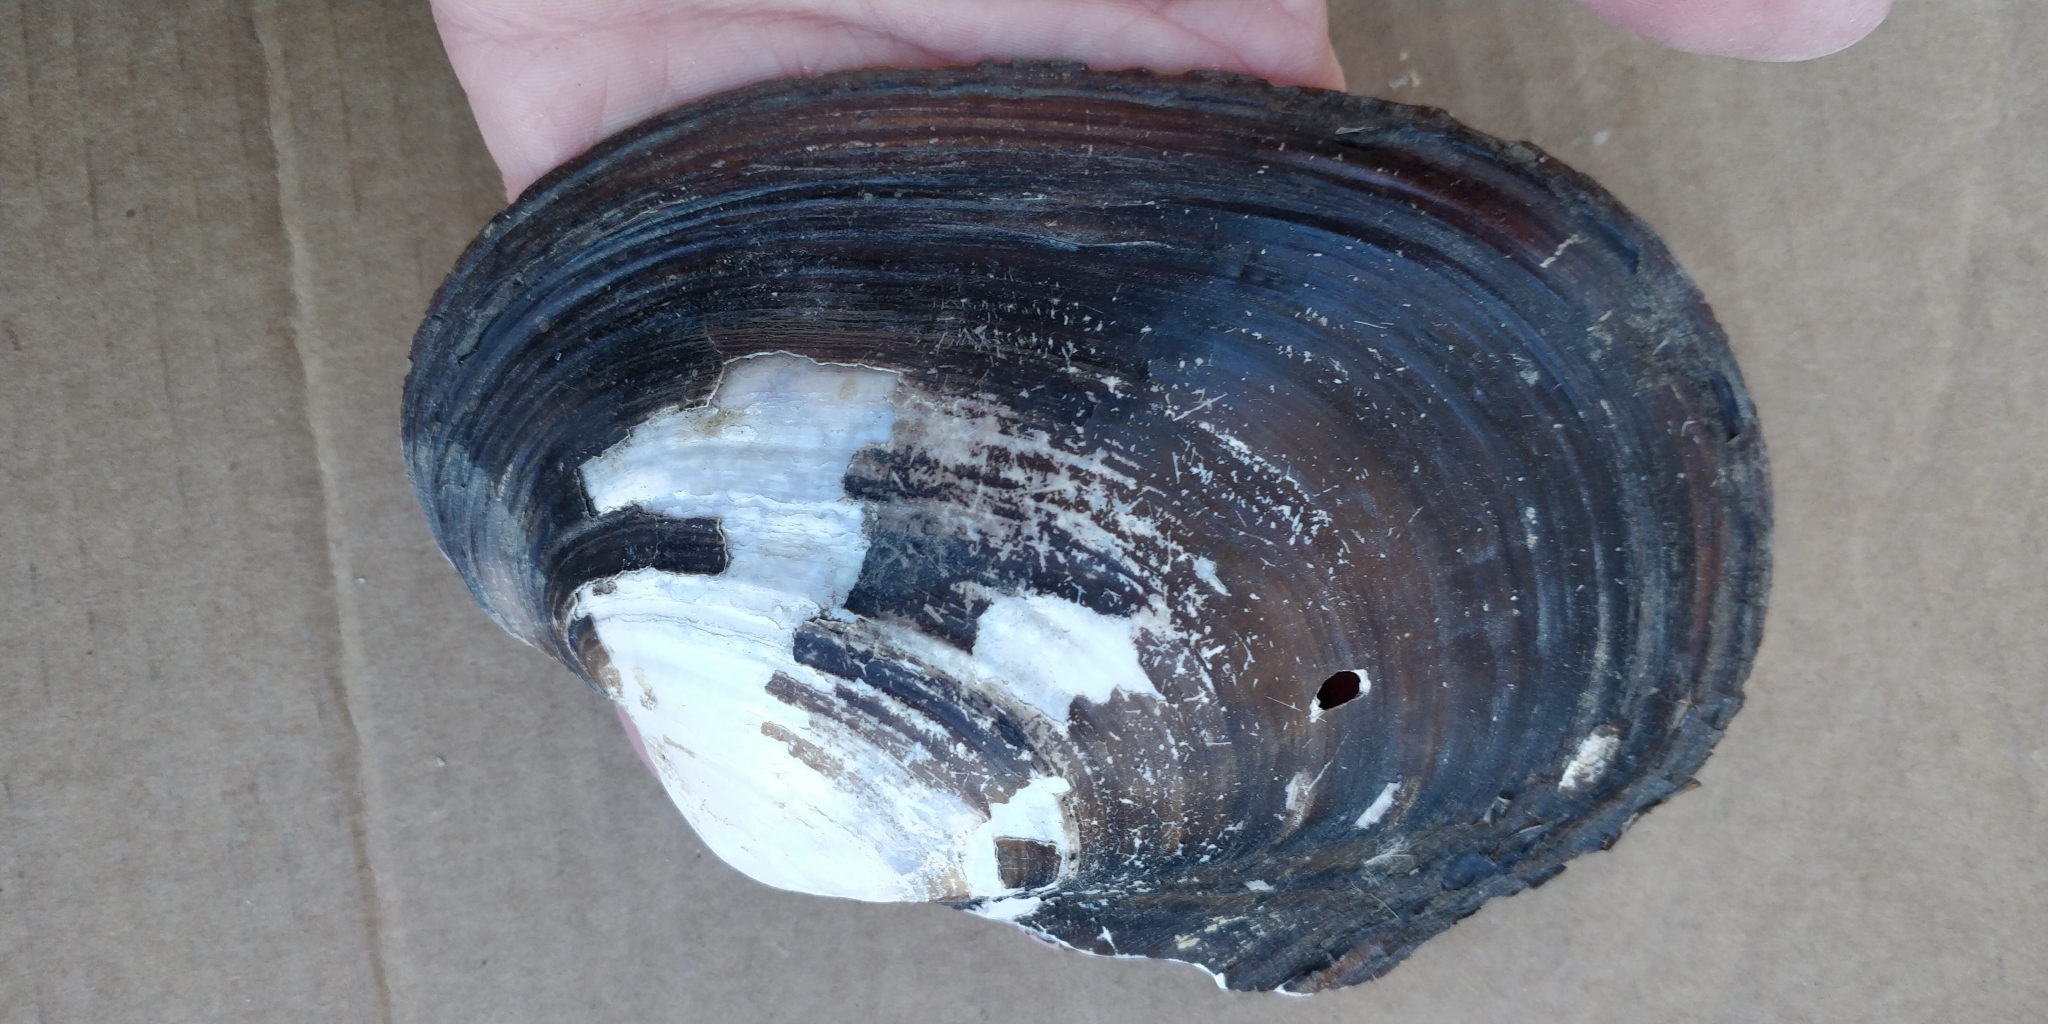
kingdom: Animalia
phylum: Mollusca
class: Bivalvia
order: Unionida
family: Unionidae
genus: Potamilus
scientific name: Potamilus alatus
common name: Pink heelsplitter
